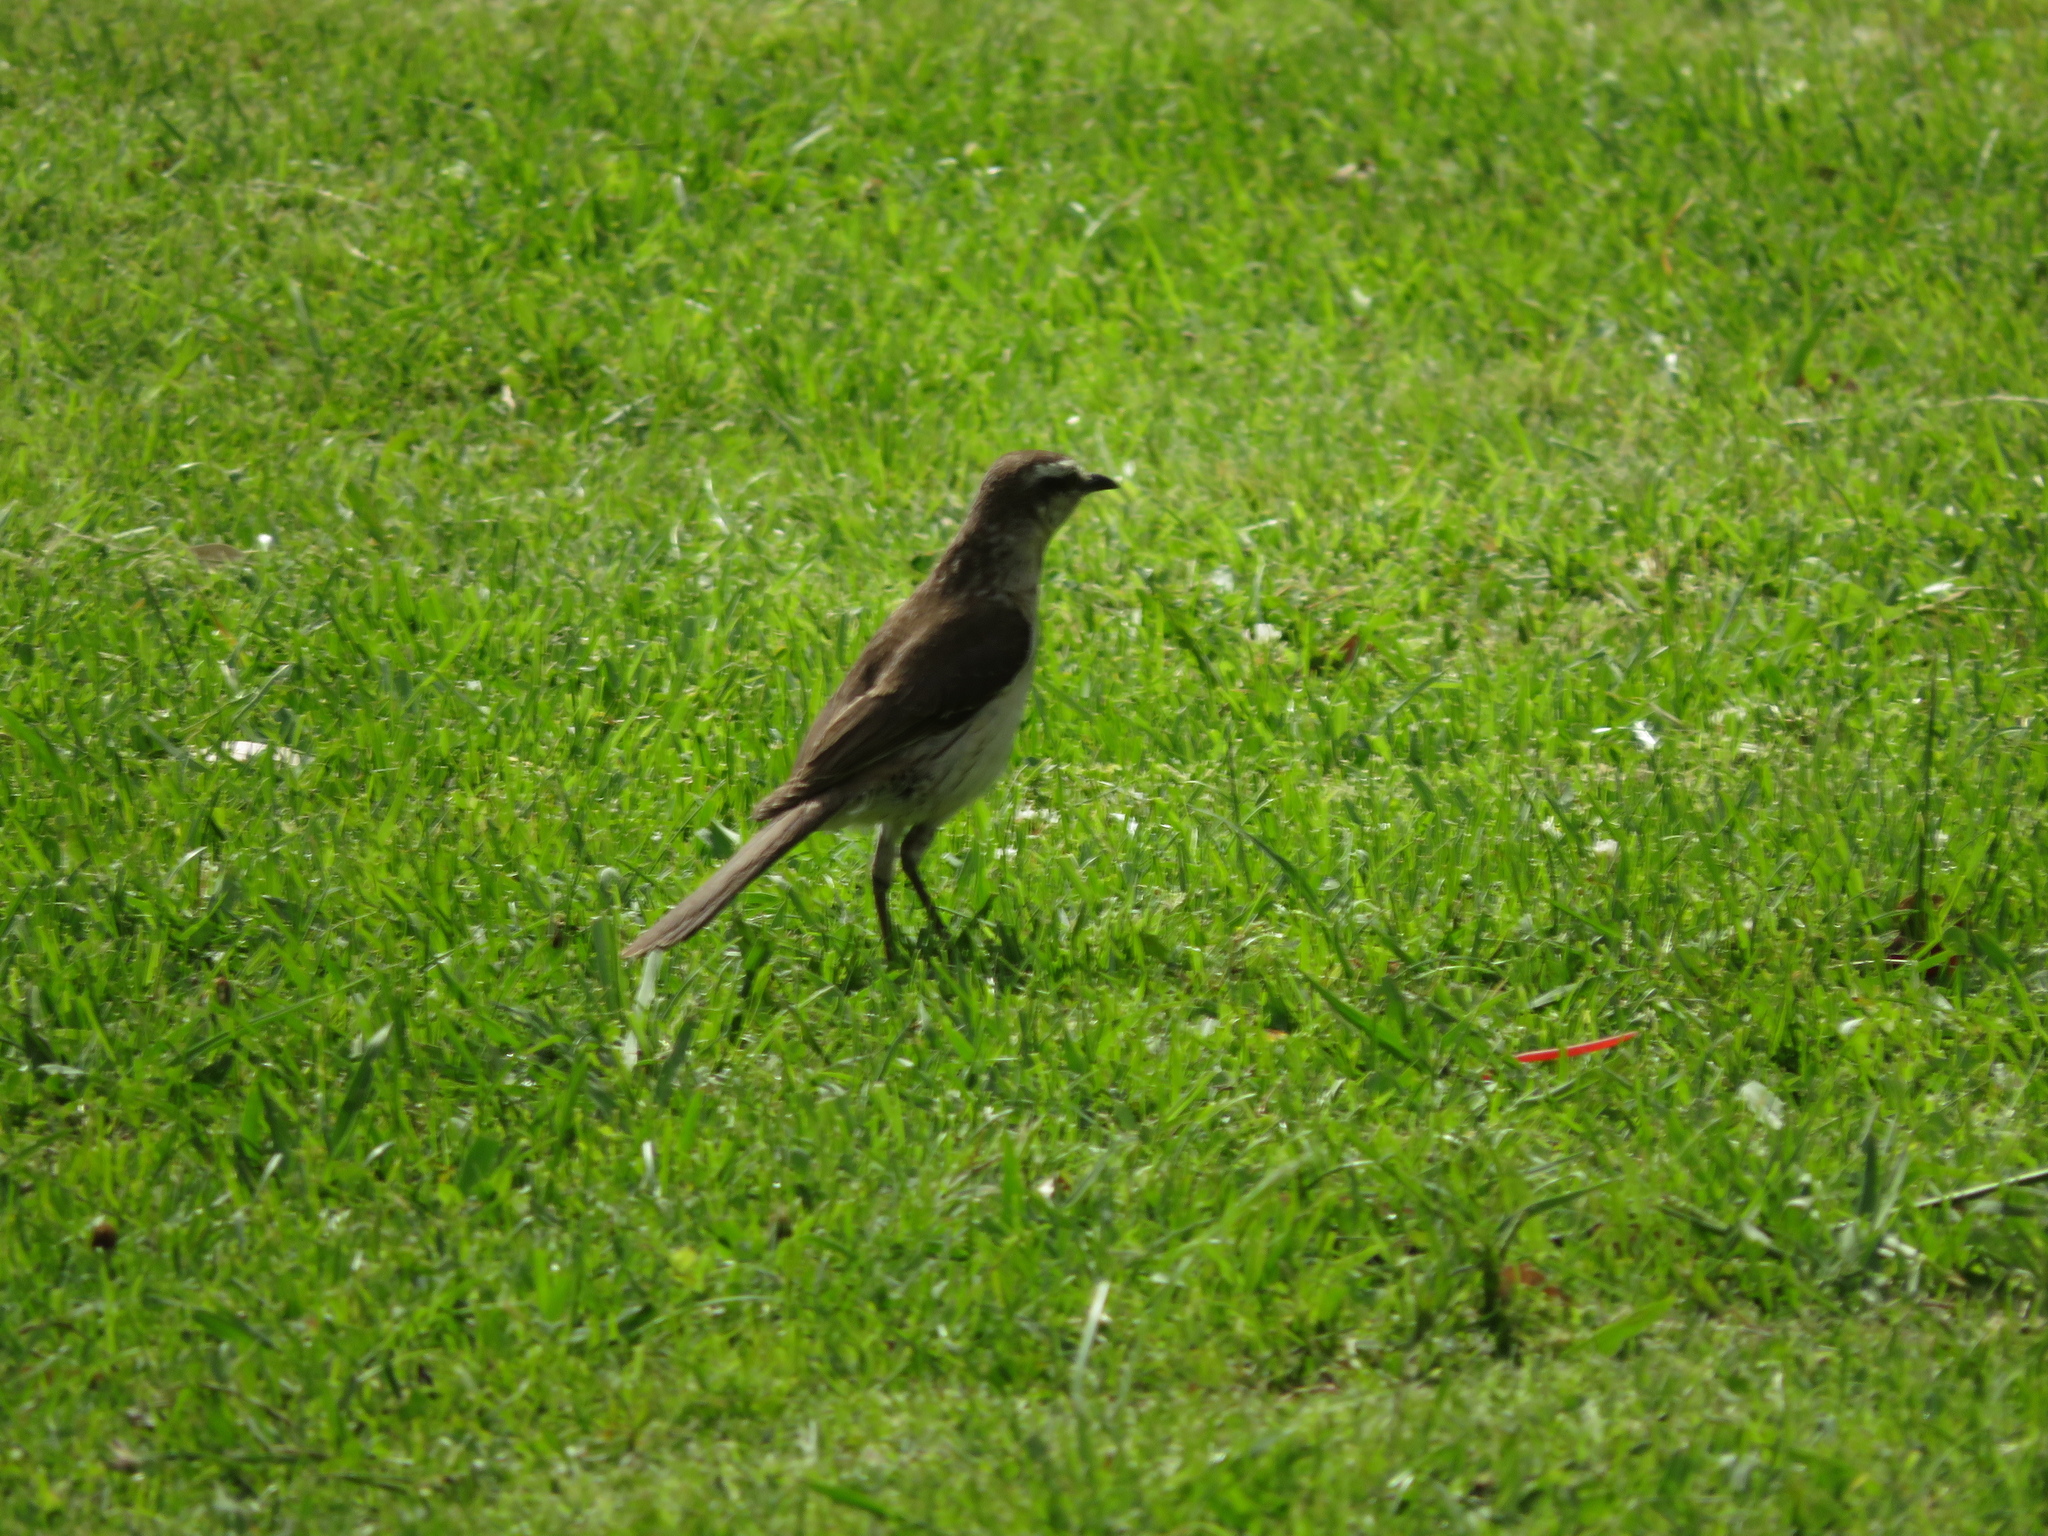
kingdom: Animalia
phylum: Chordata
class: Aves
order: Passeriformes
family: Mimidae
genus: Mimus
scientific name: Mimus saturninus
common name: Chalk-browed mockingbird
